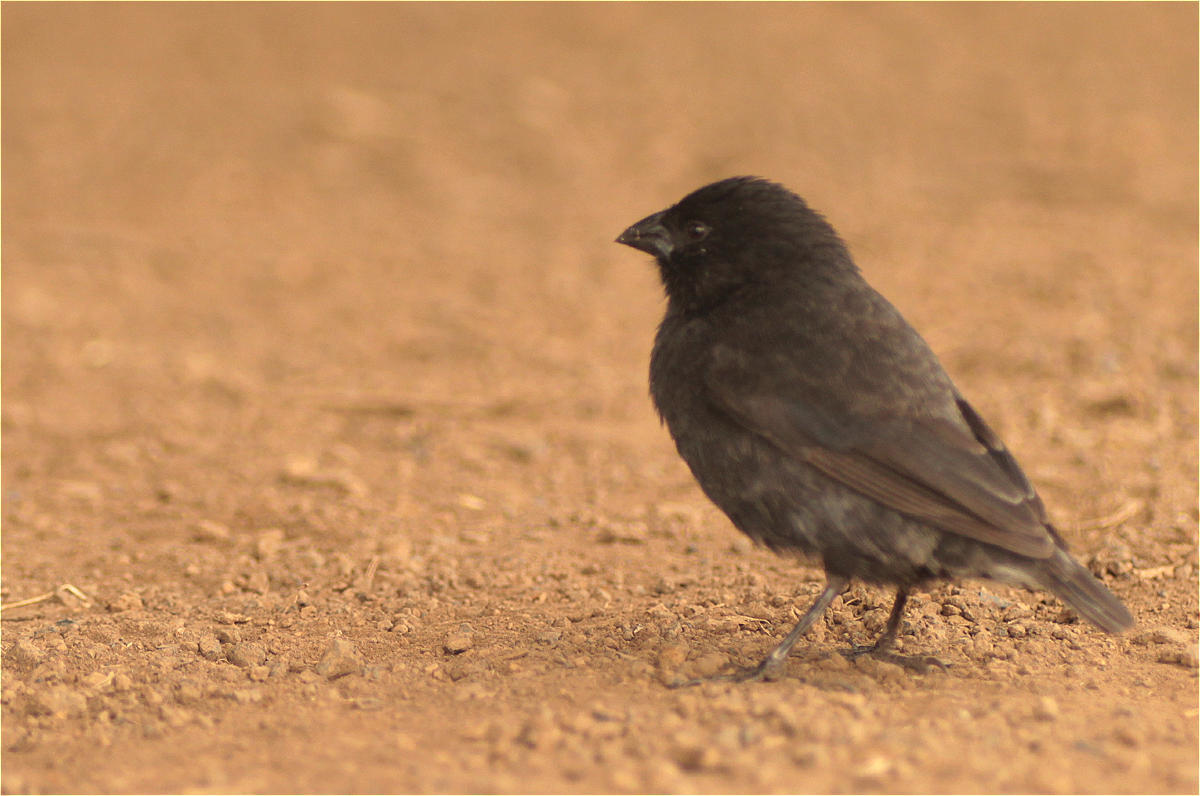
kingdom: Animalia
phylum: Chordata
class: Aves
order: Passeriformes
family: Thraupidae
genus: Geospiza
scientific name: Geospiza fuliginosa
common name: Small ground finch
